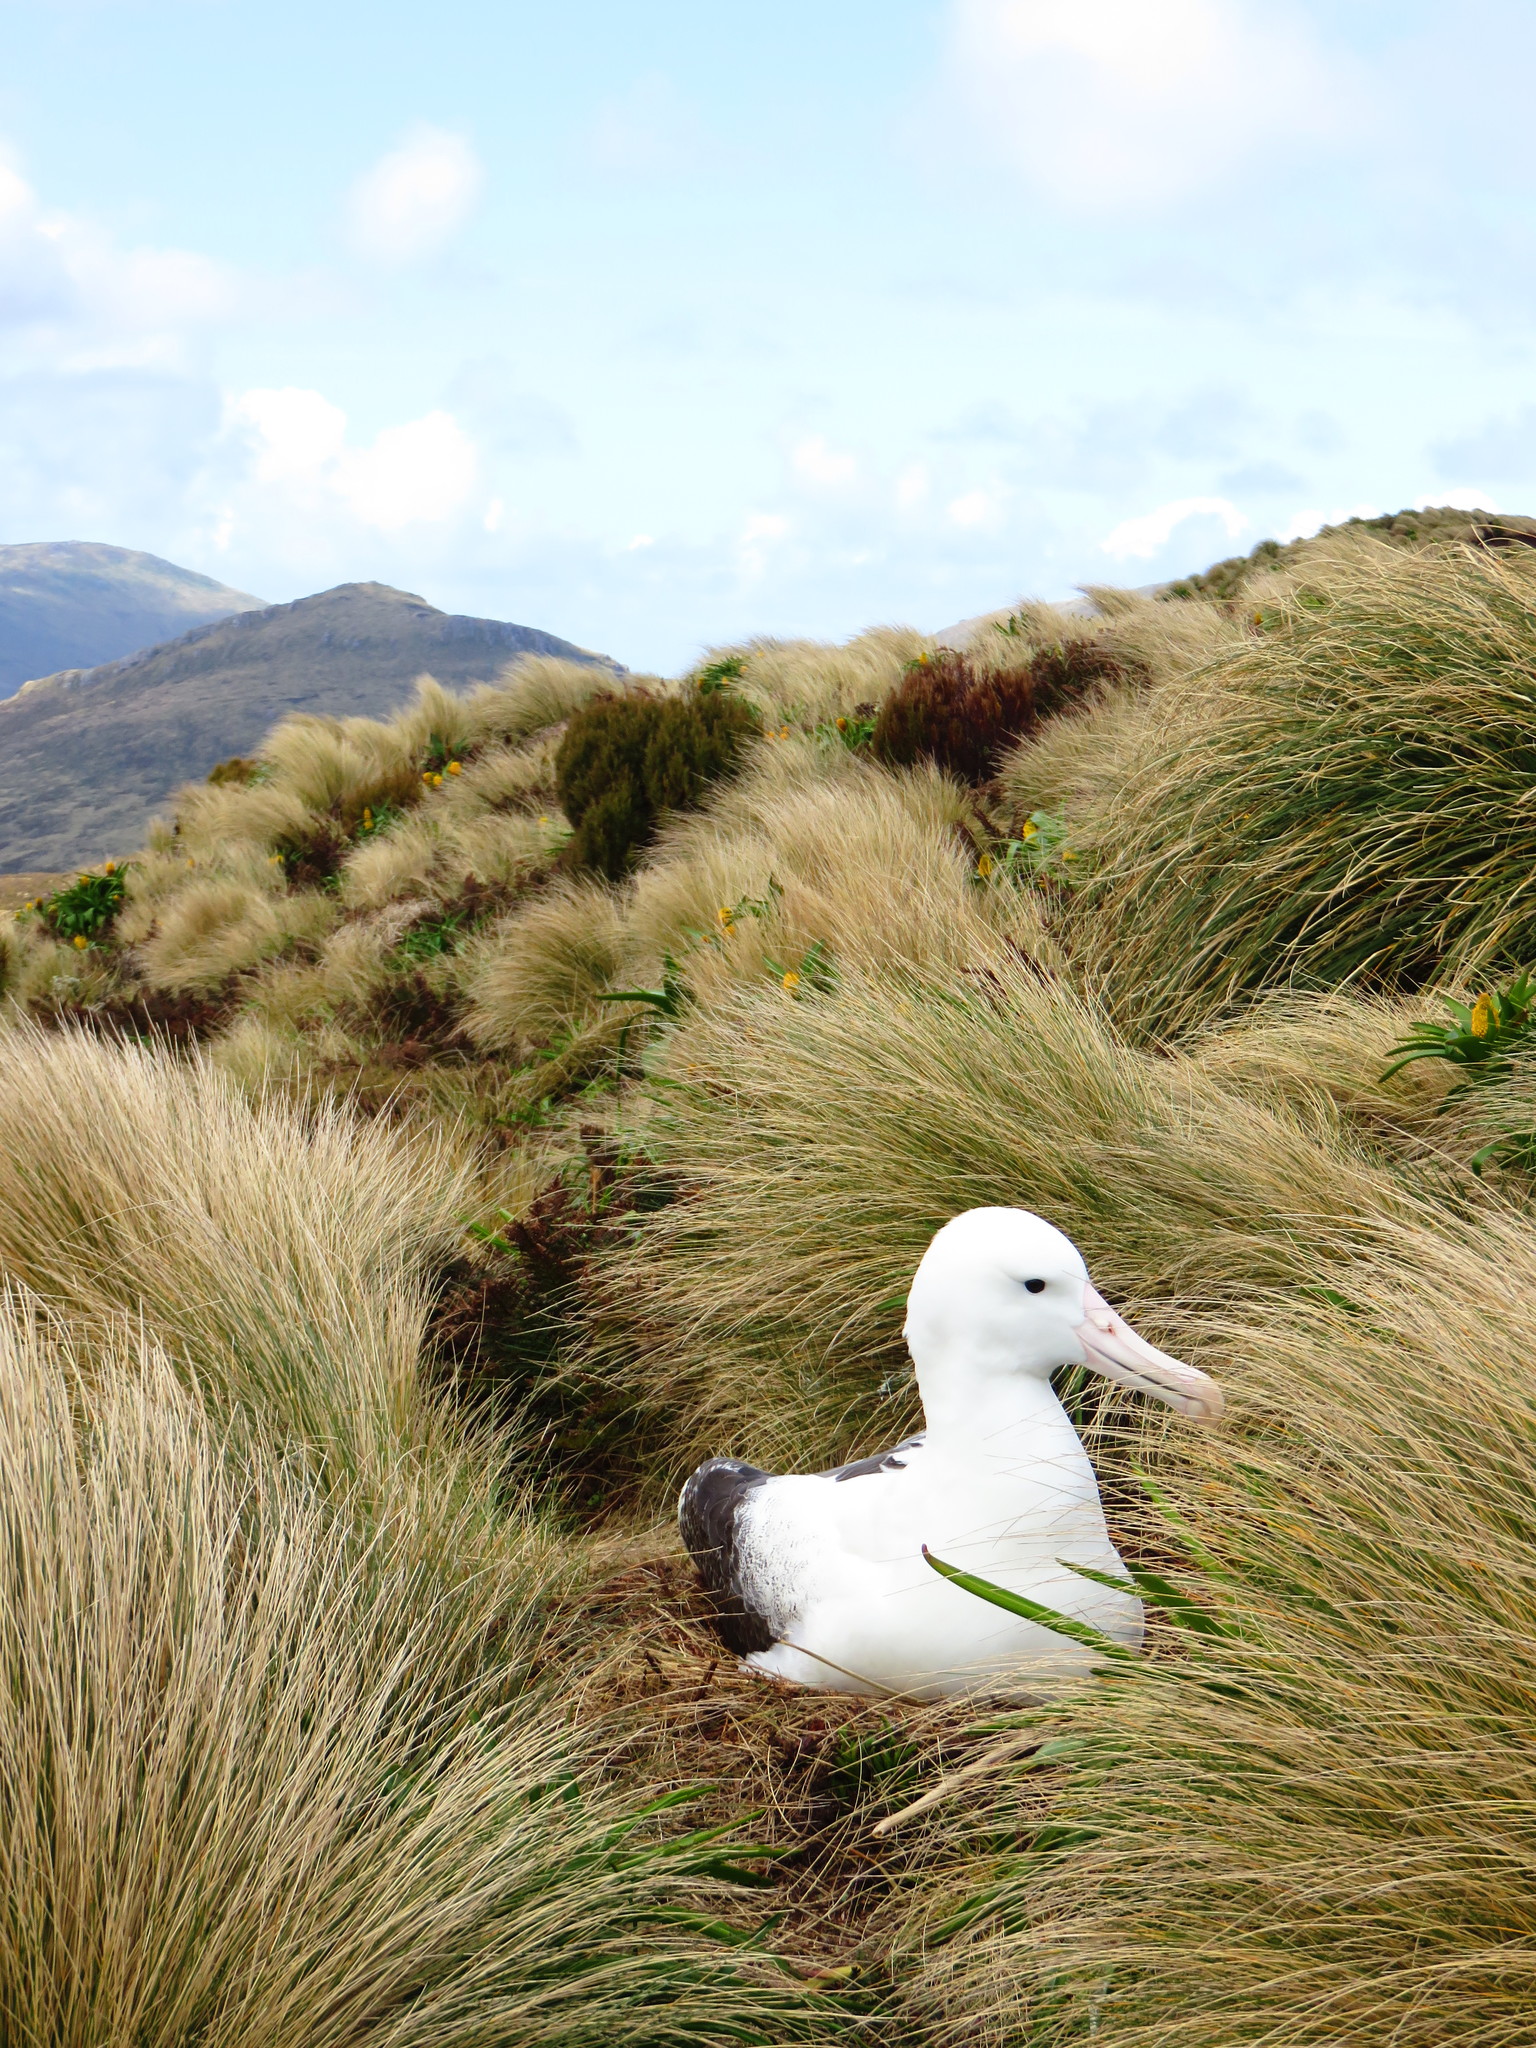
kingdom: Animalia
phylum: Chordata
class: Aves
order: Procellariiformes
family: Diomedeidae
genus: Diomedea
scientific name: Diomedea epomophora
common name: Southern royal albatross
